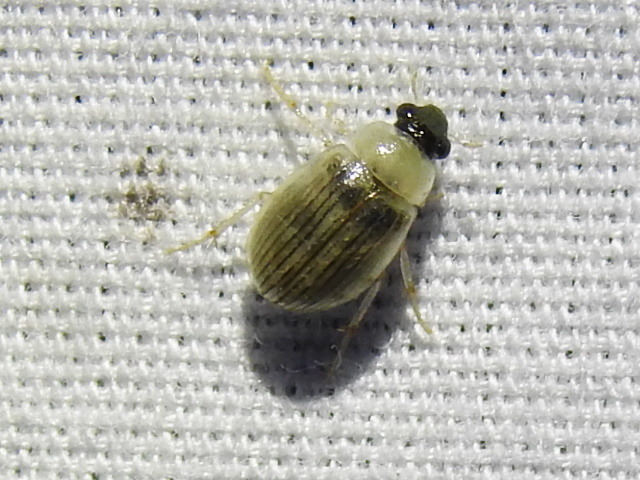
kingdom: Animalia
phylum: Arthropoda
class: Insecta
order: Coleoptera
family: Hydrophilidae
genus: Berosus
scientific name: Berosus metalliceps
